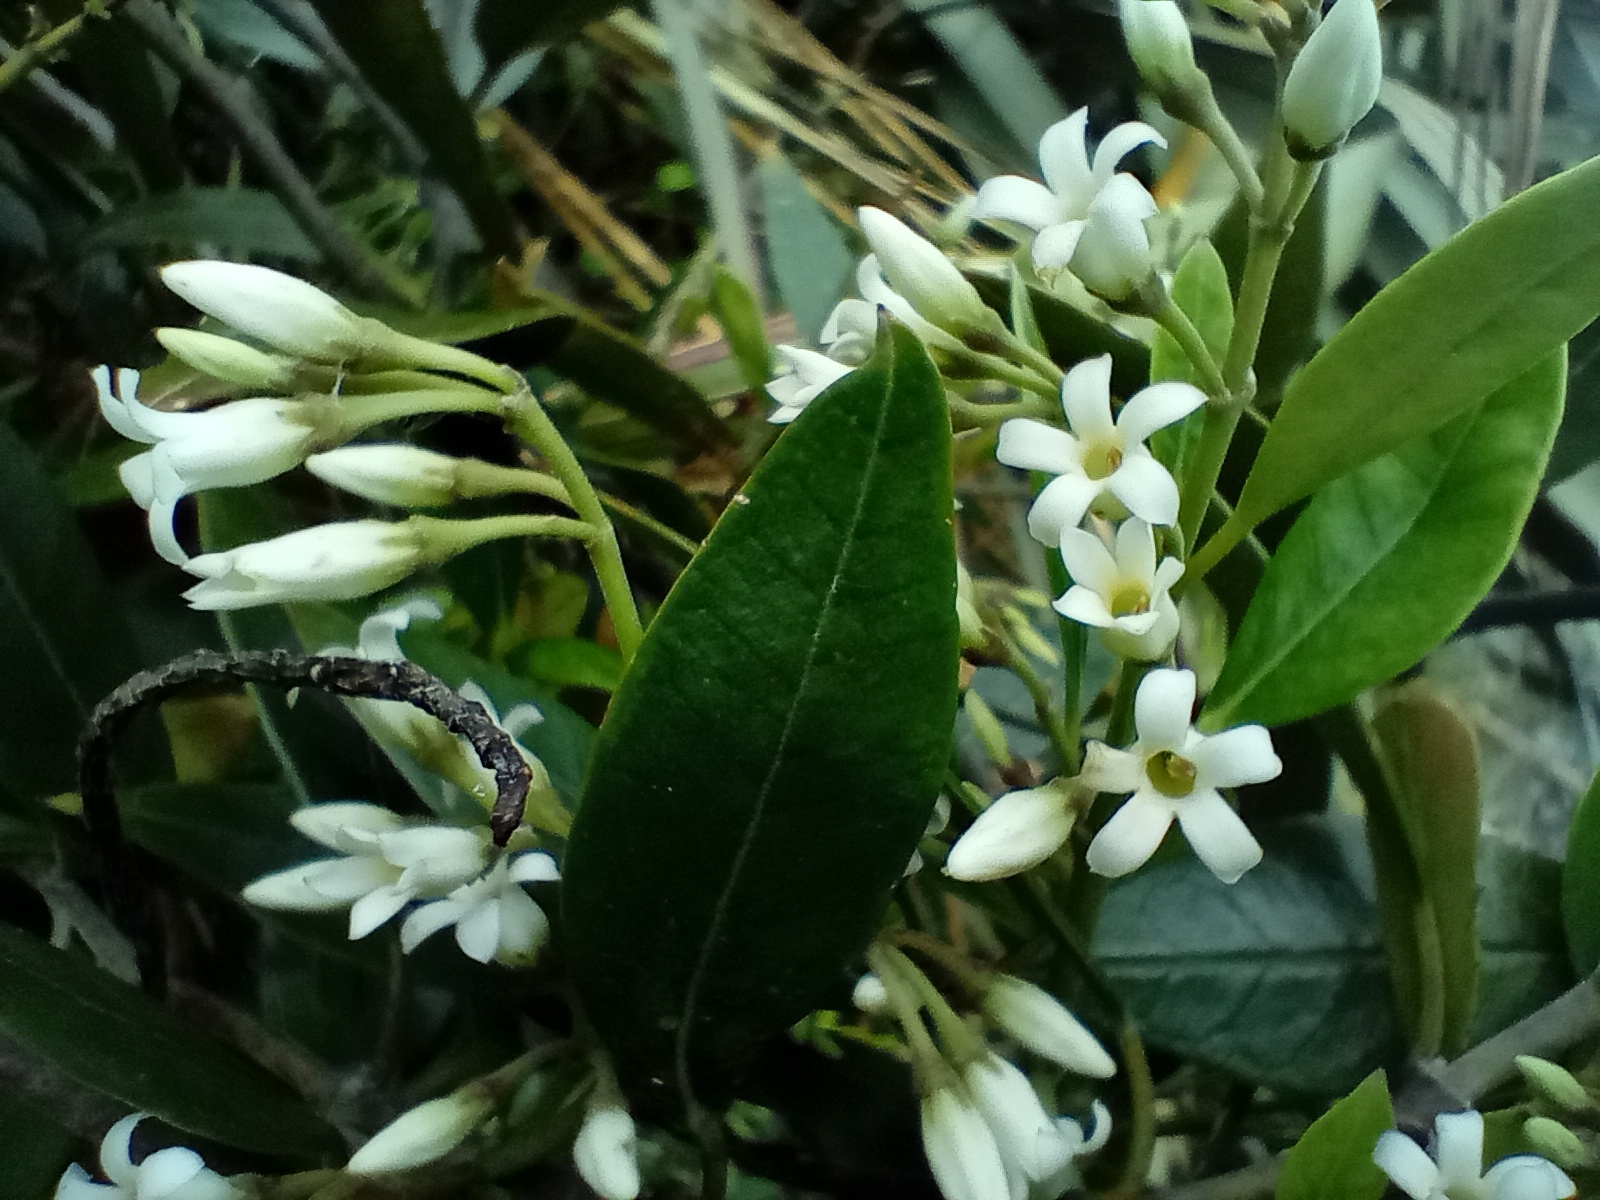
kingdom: Plantae
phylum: Tracheophyta
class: Magnoliopsida
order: Gentianales
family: Apocynaceae
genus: Parsonsia
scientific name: Parsonsia heterophylla
